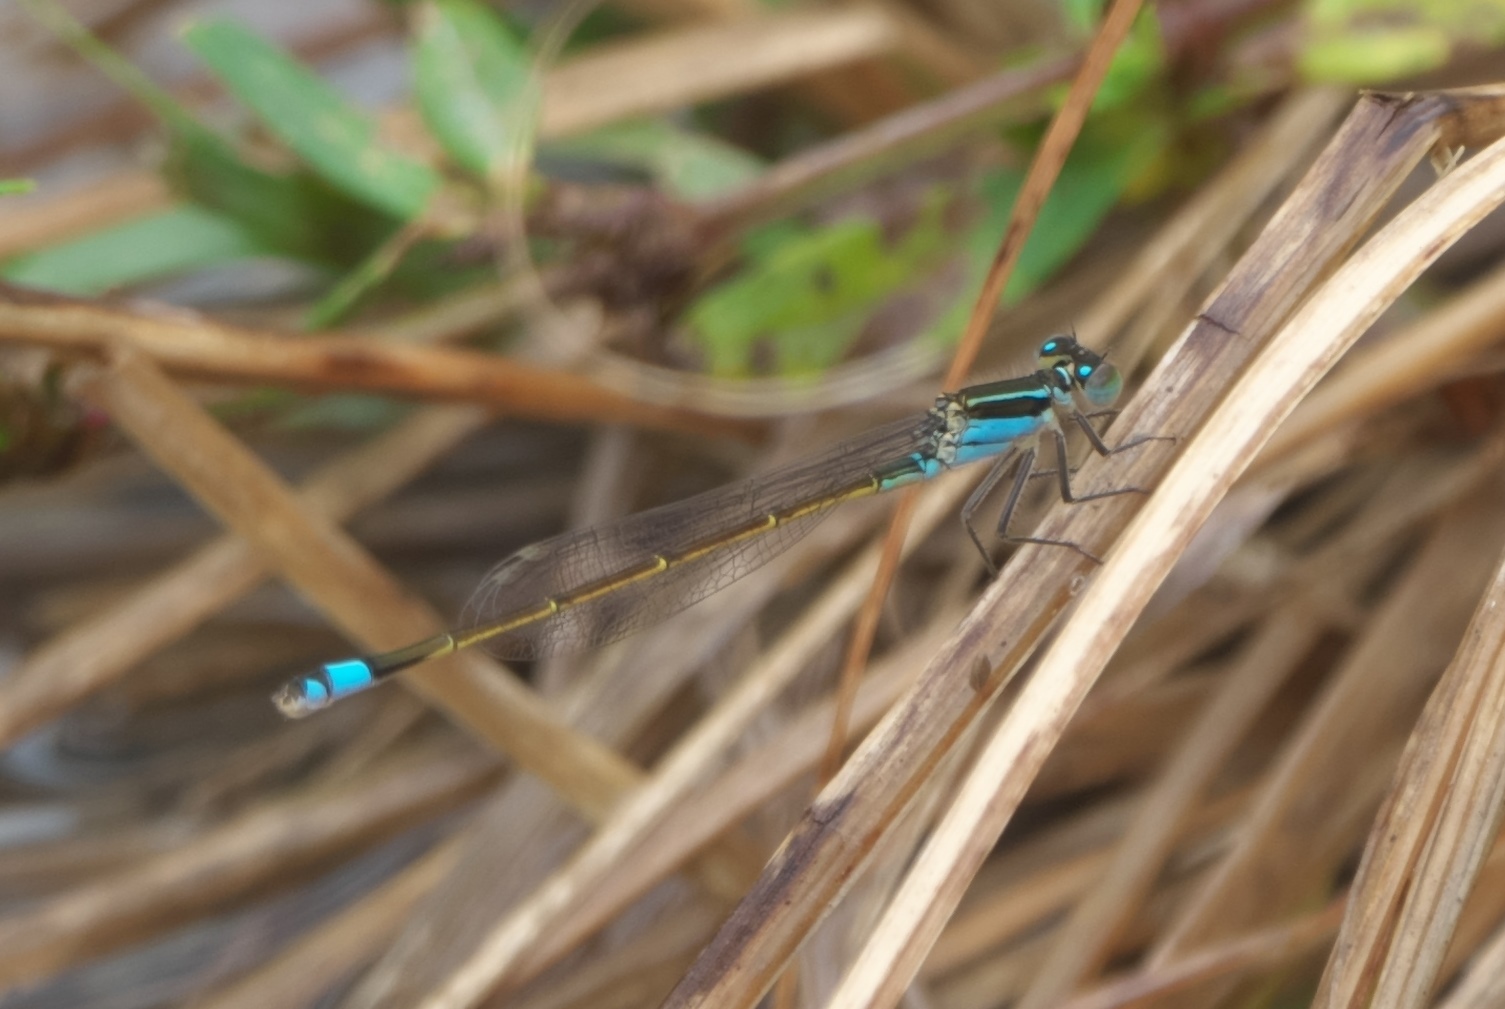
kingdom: Animalia
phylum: Arthropoda
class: Insecta
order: Odonata
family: Coenagrionidae
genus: Ischnura
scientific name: Ischnura ramburii
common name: Rambur's forktail
